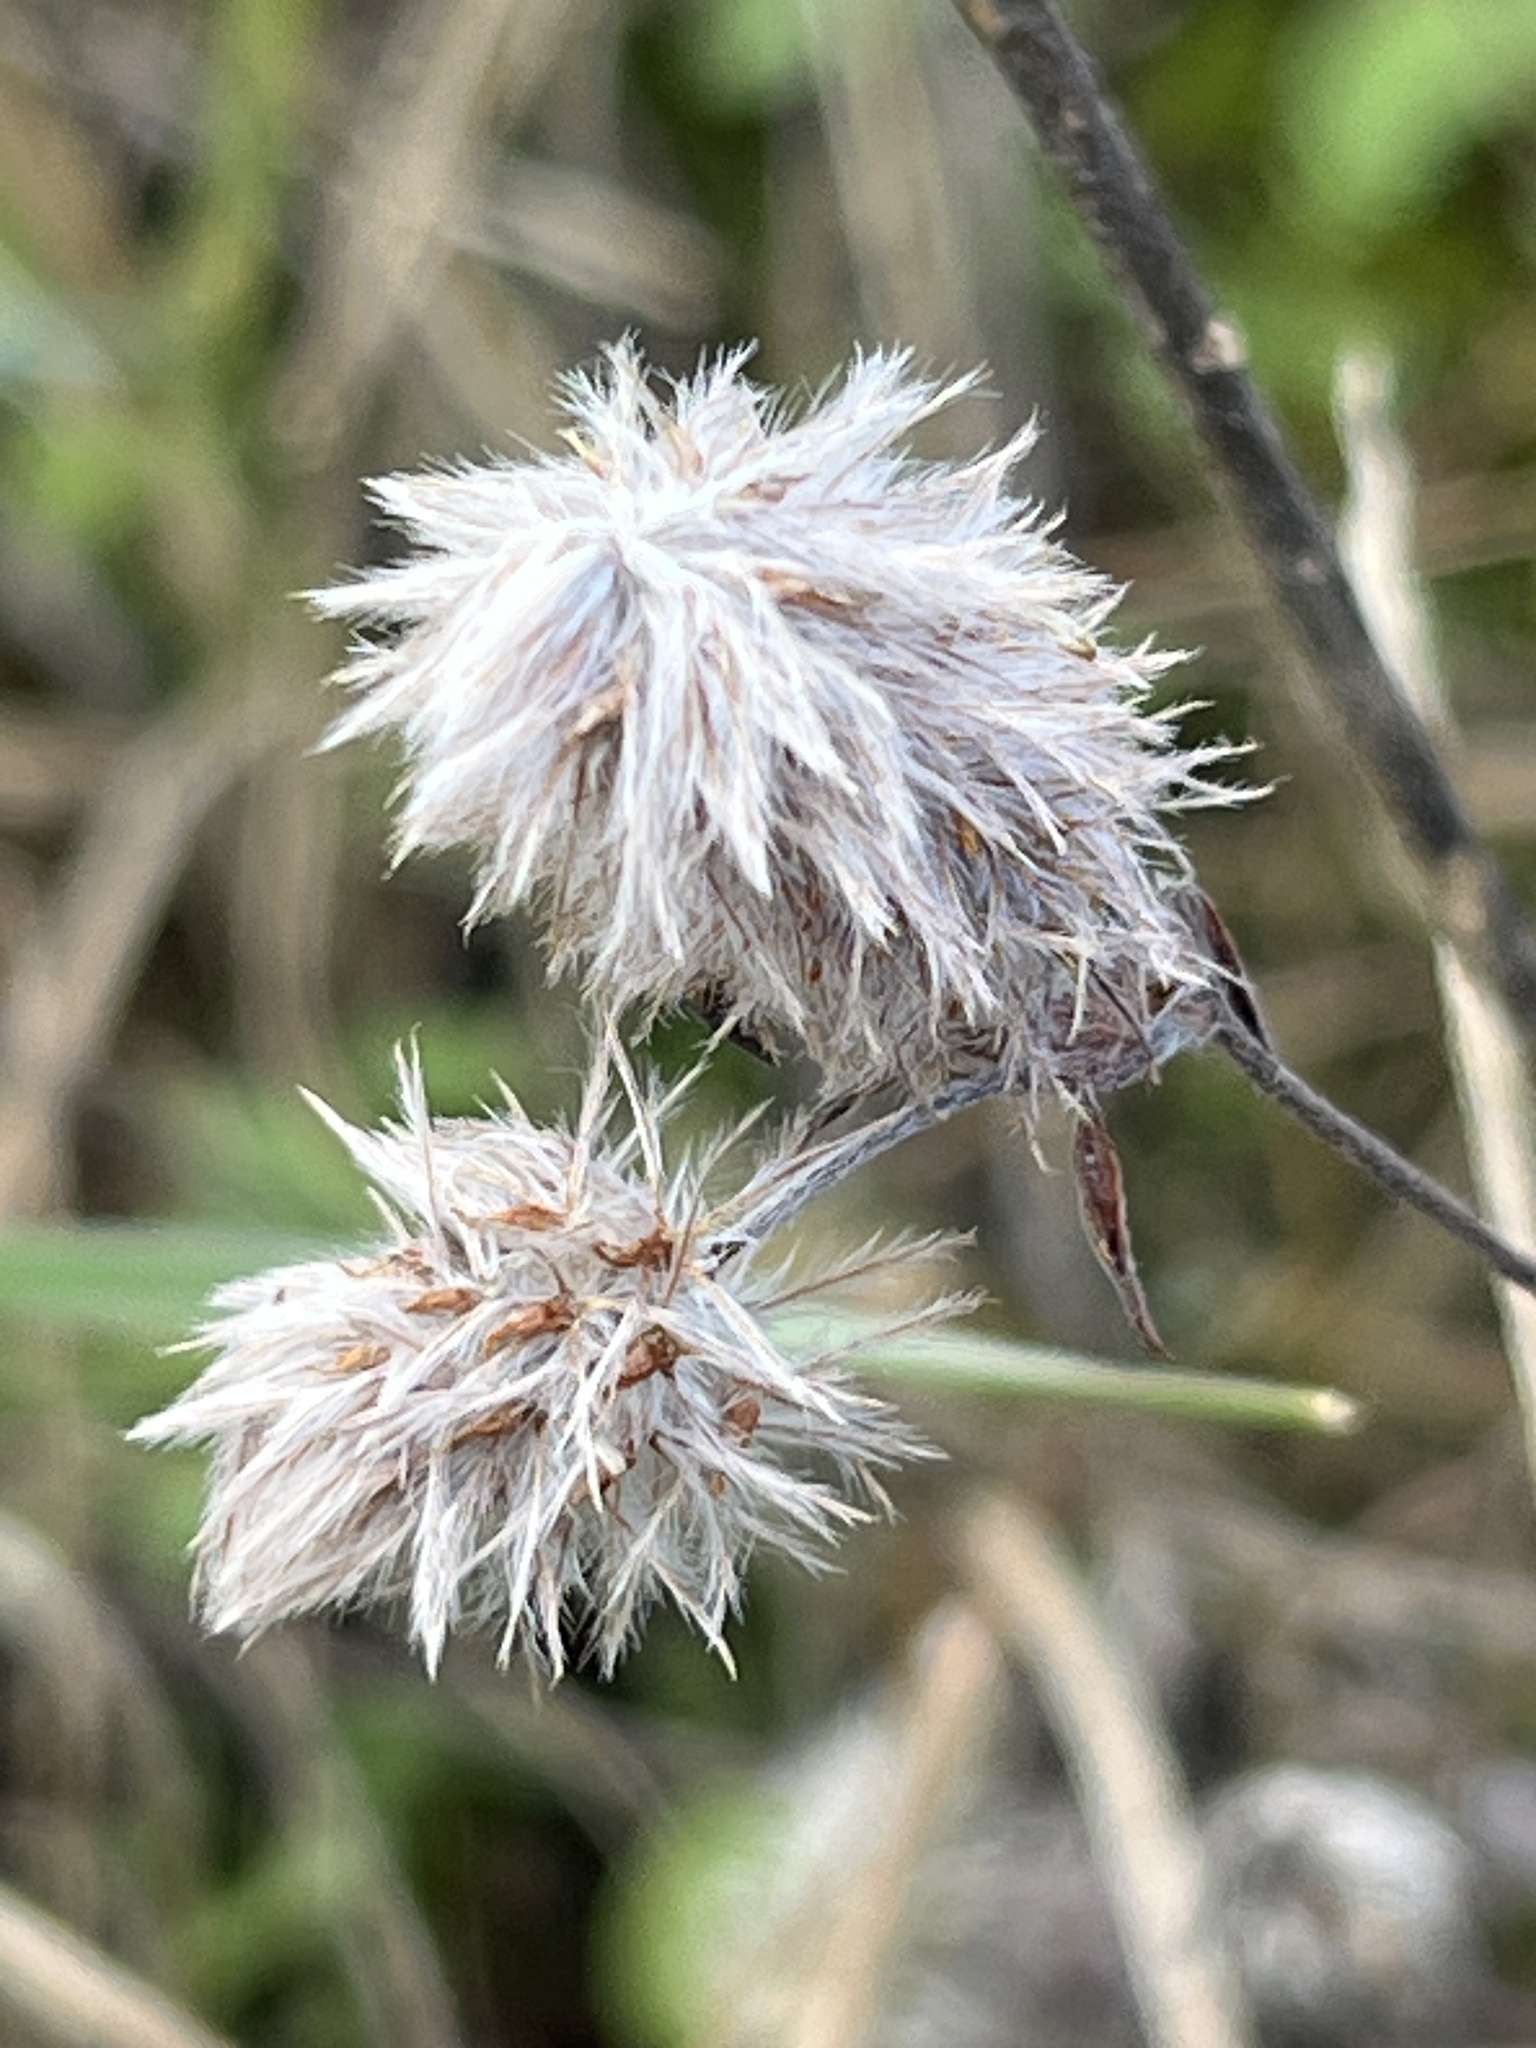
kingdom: Plantae
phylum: Tracheophyta
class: Magnoliopsida
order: Fabales
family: Fabaceae
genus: Trifolium
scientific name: Trifolium arvense
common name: Hare's-foot clover
